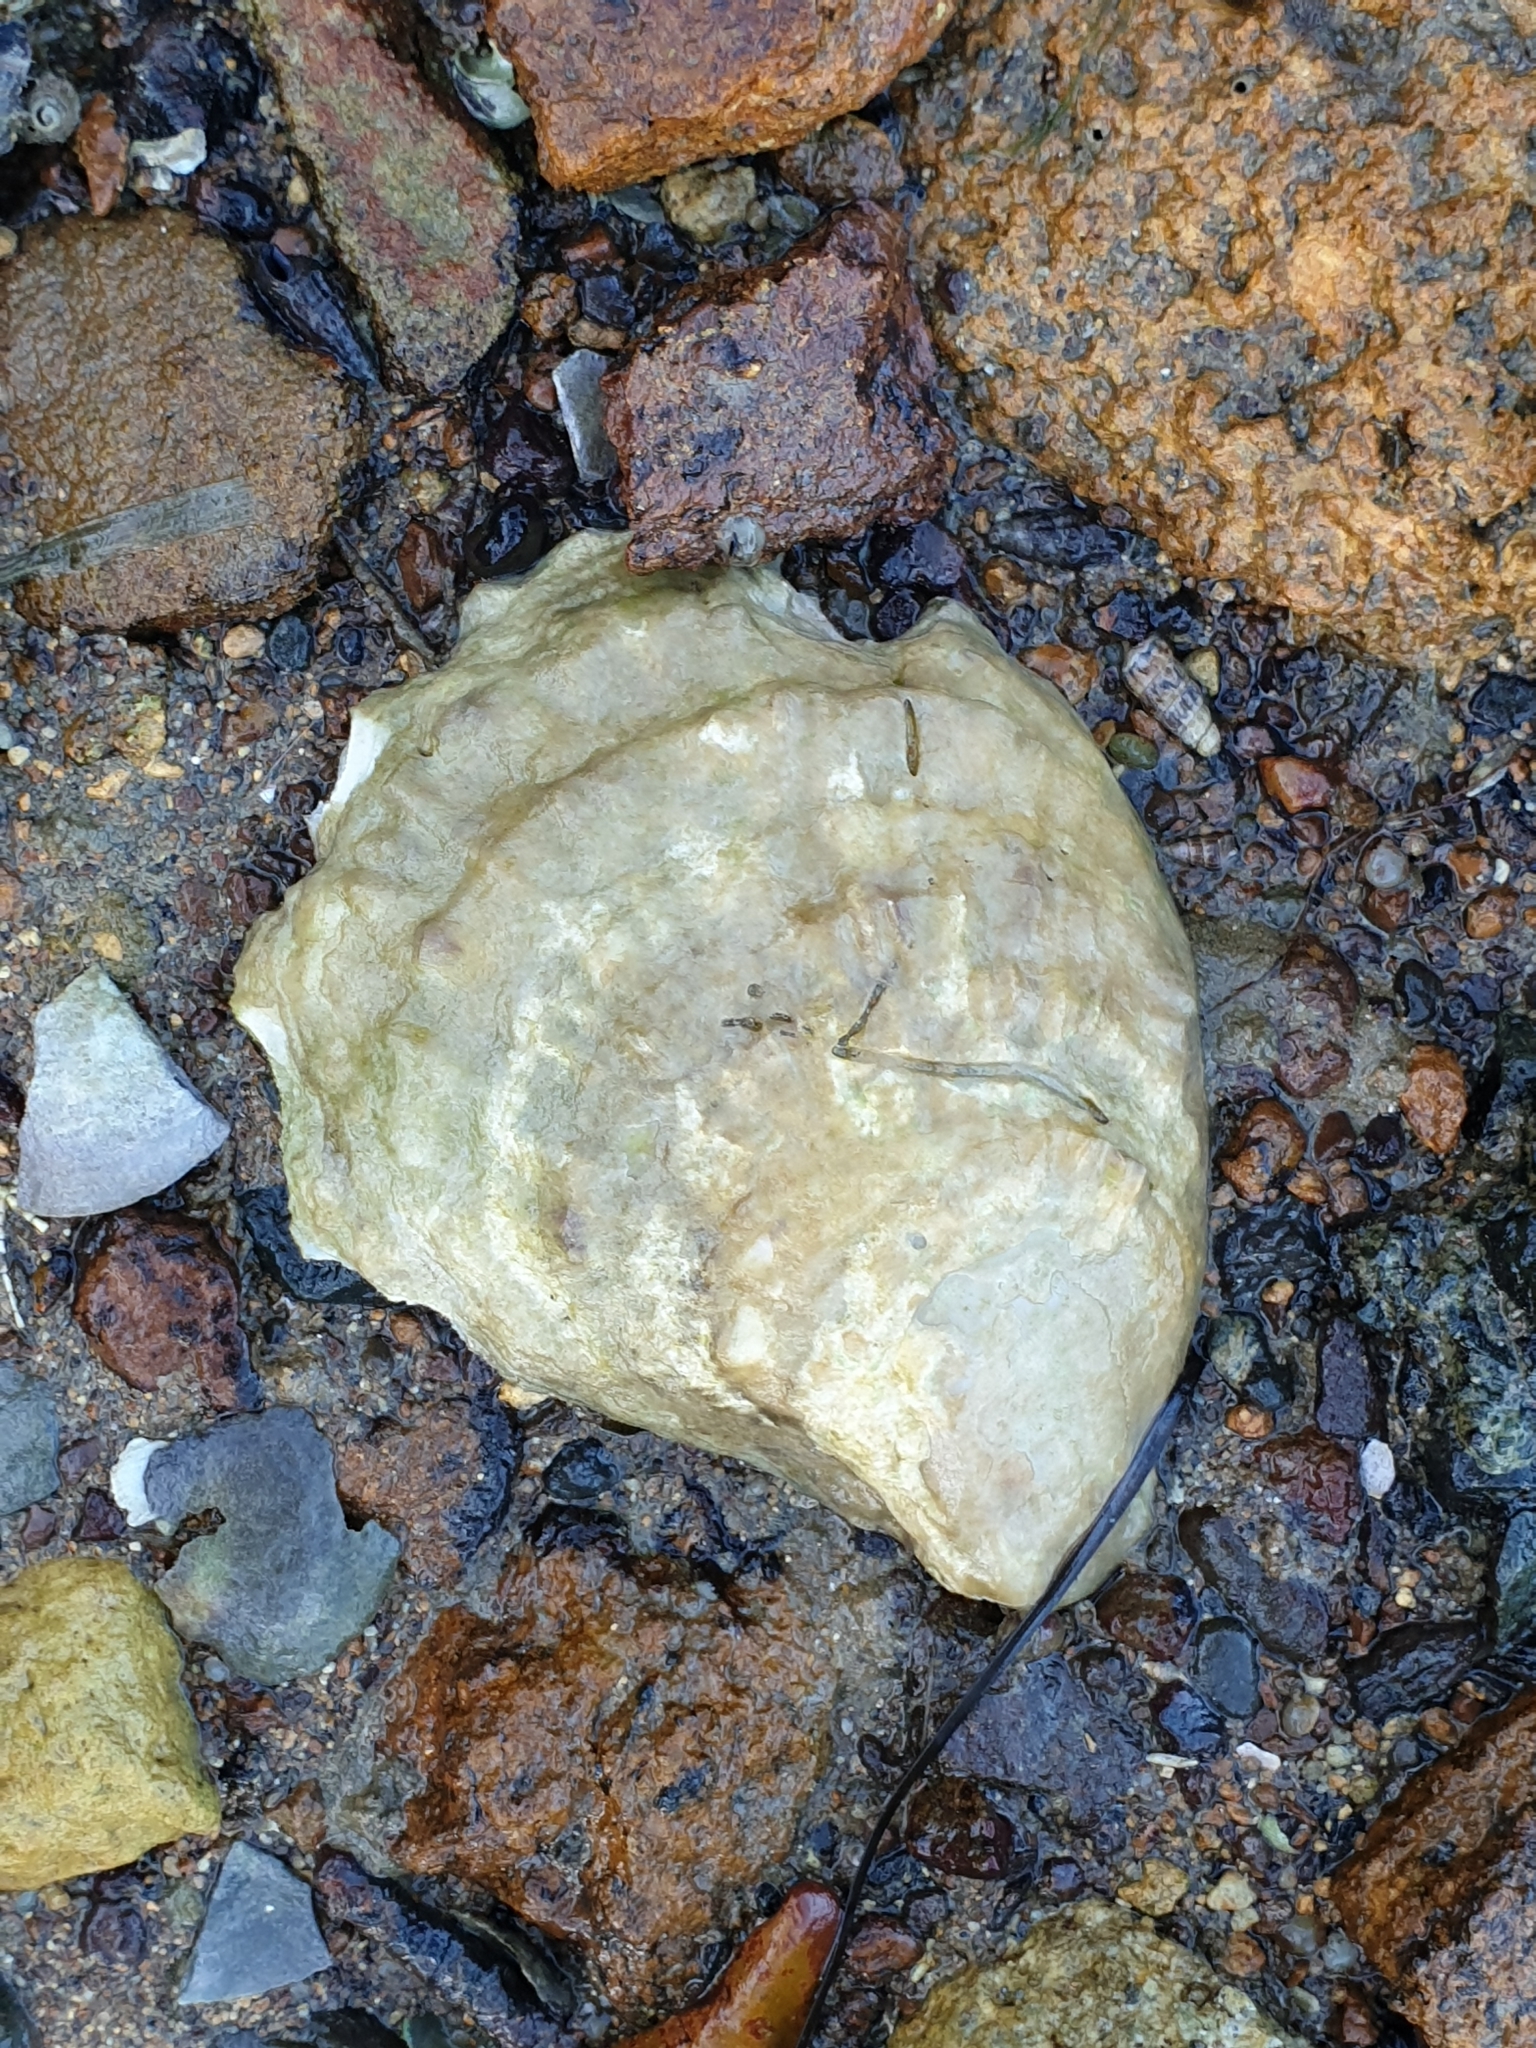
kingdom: Animalia
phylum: Mollusca
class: Bivalvia
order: Ostreida
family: Ostreidae
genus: Ostrea
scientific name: Ostrea chilensis
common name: Chilean oyster
